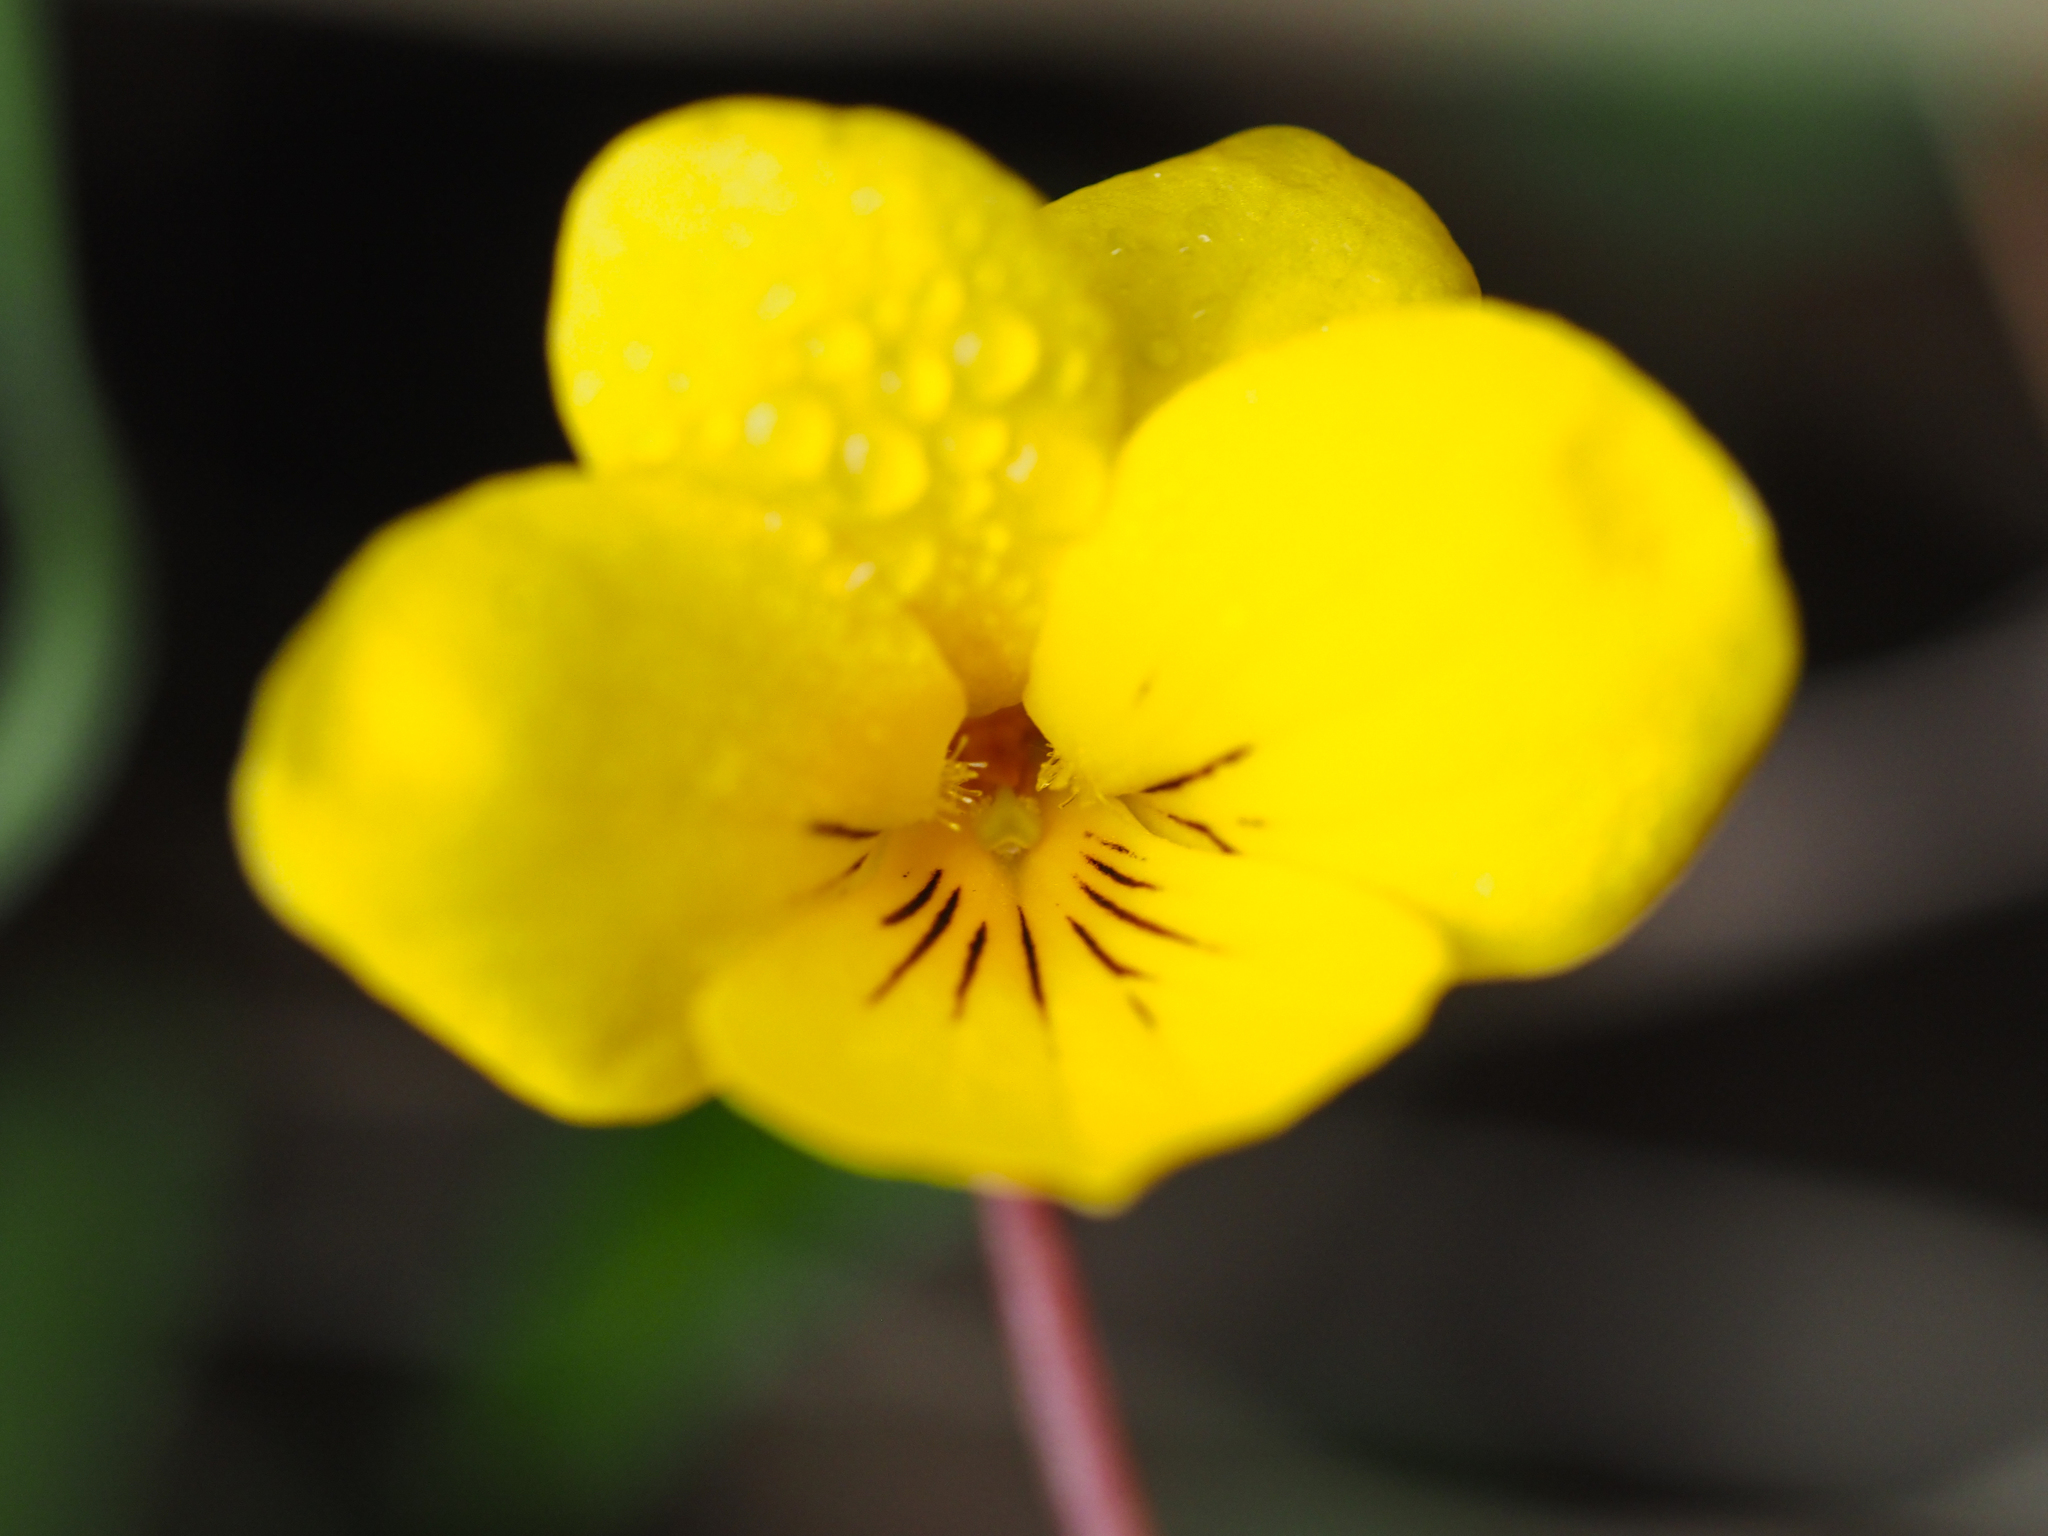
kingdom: Plantae
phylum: Tracheophyta
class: Magnoliopsida
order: Malpighiales
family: Violaceae
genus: Viola
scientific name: Viola sempervirens
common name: Evergreen violet
